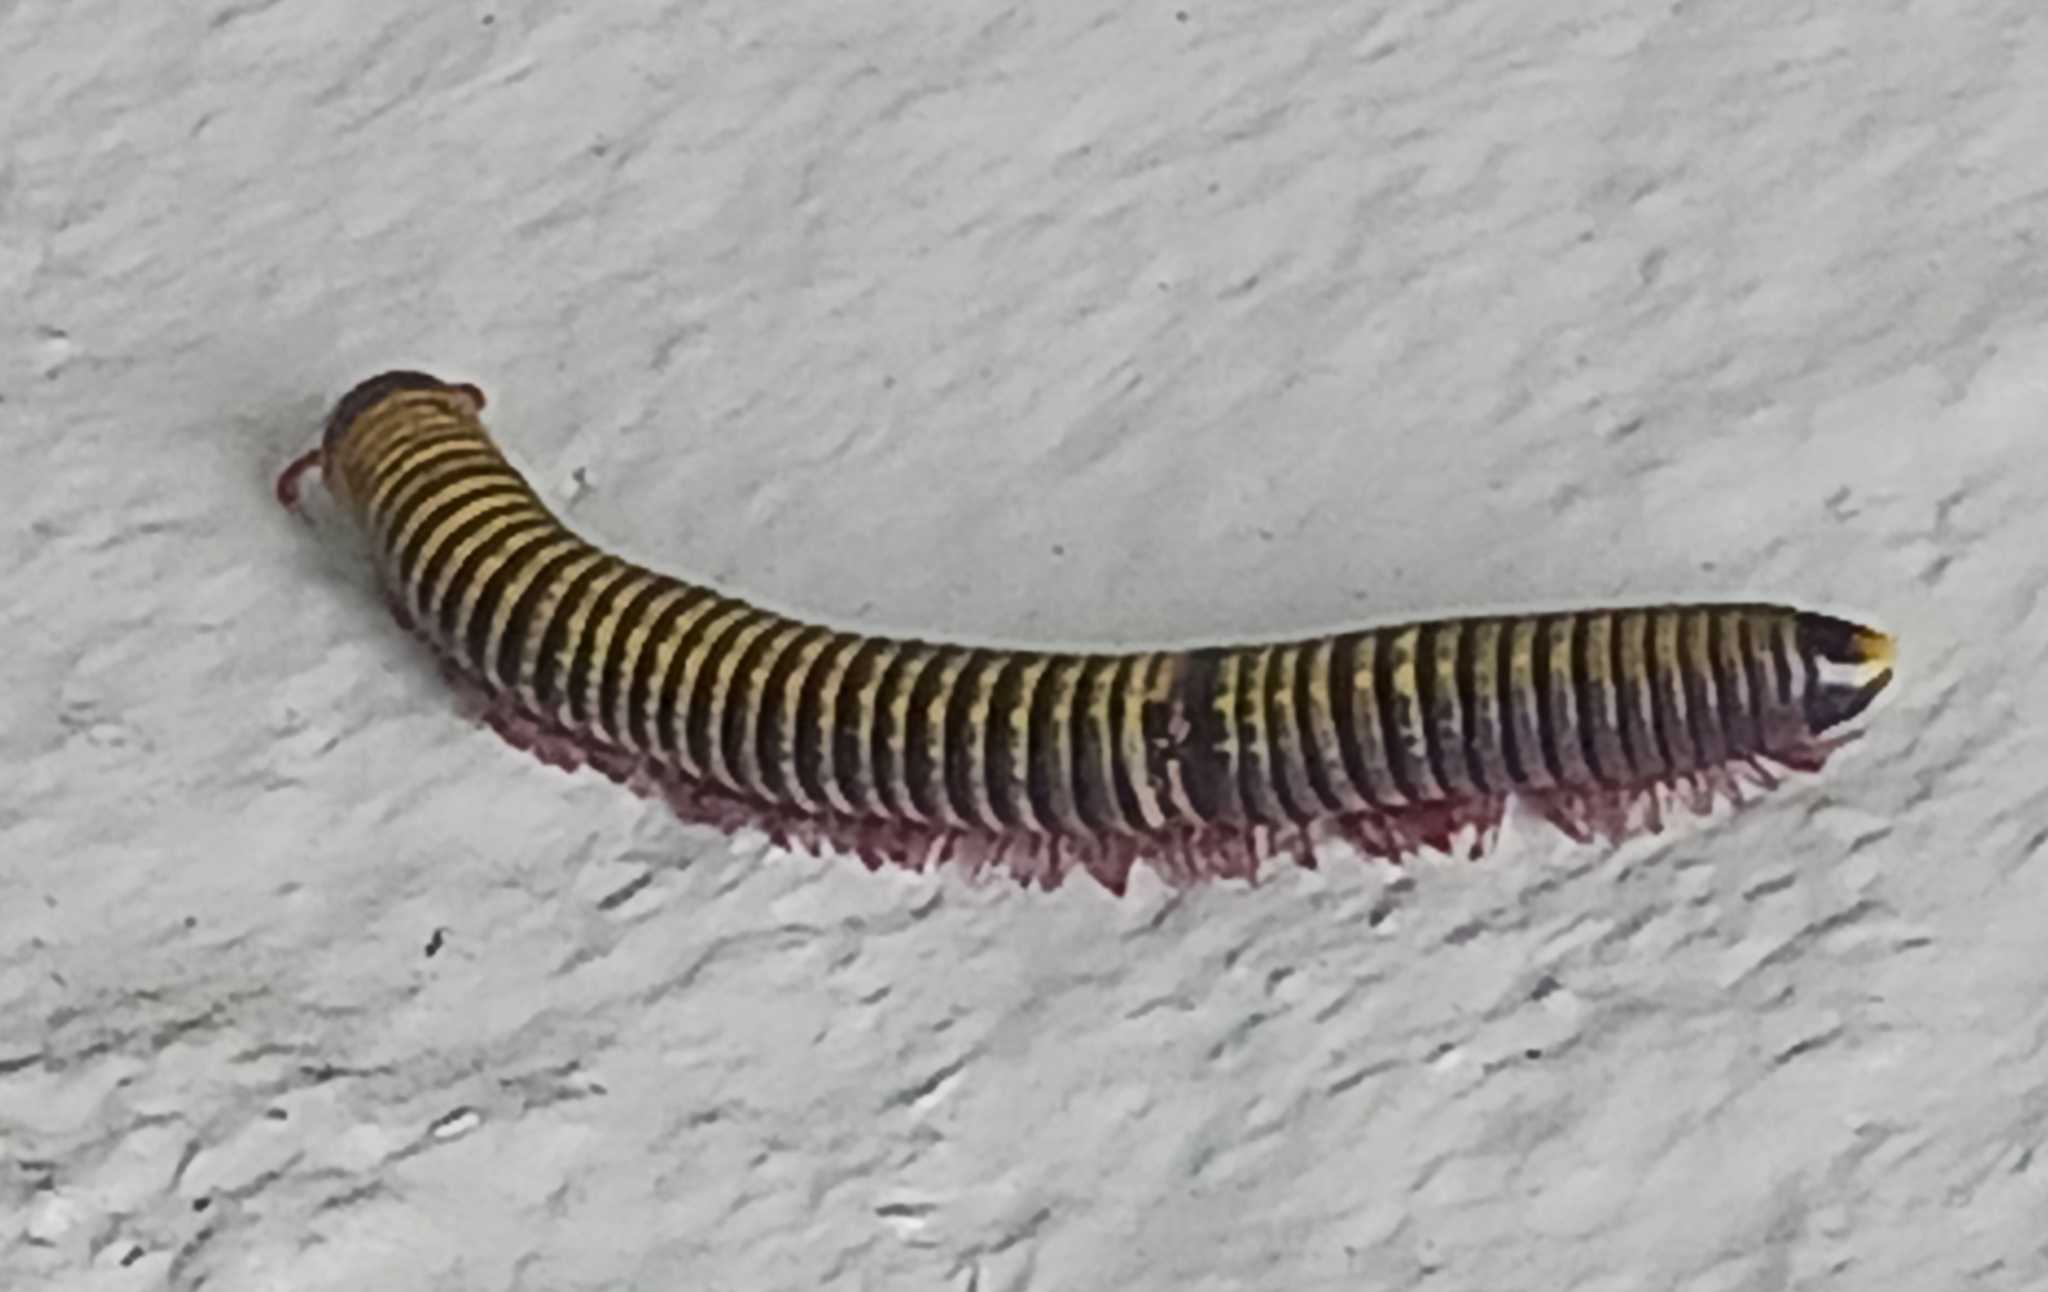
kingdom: Animalia
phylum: Arthropoda
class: Diplopoda
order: Spirobolida
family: Rhinocricidae
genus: Anadenobolus
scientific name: Anadenobolus monilicornis
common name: Caribbean millipede
